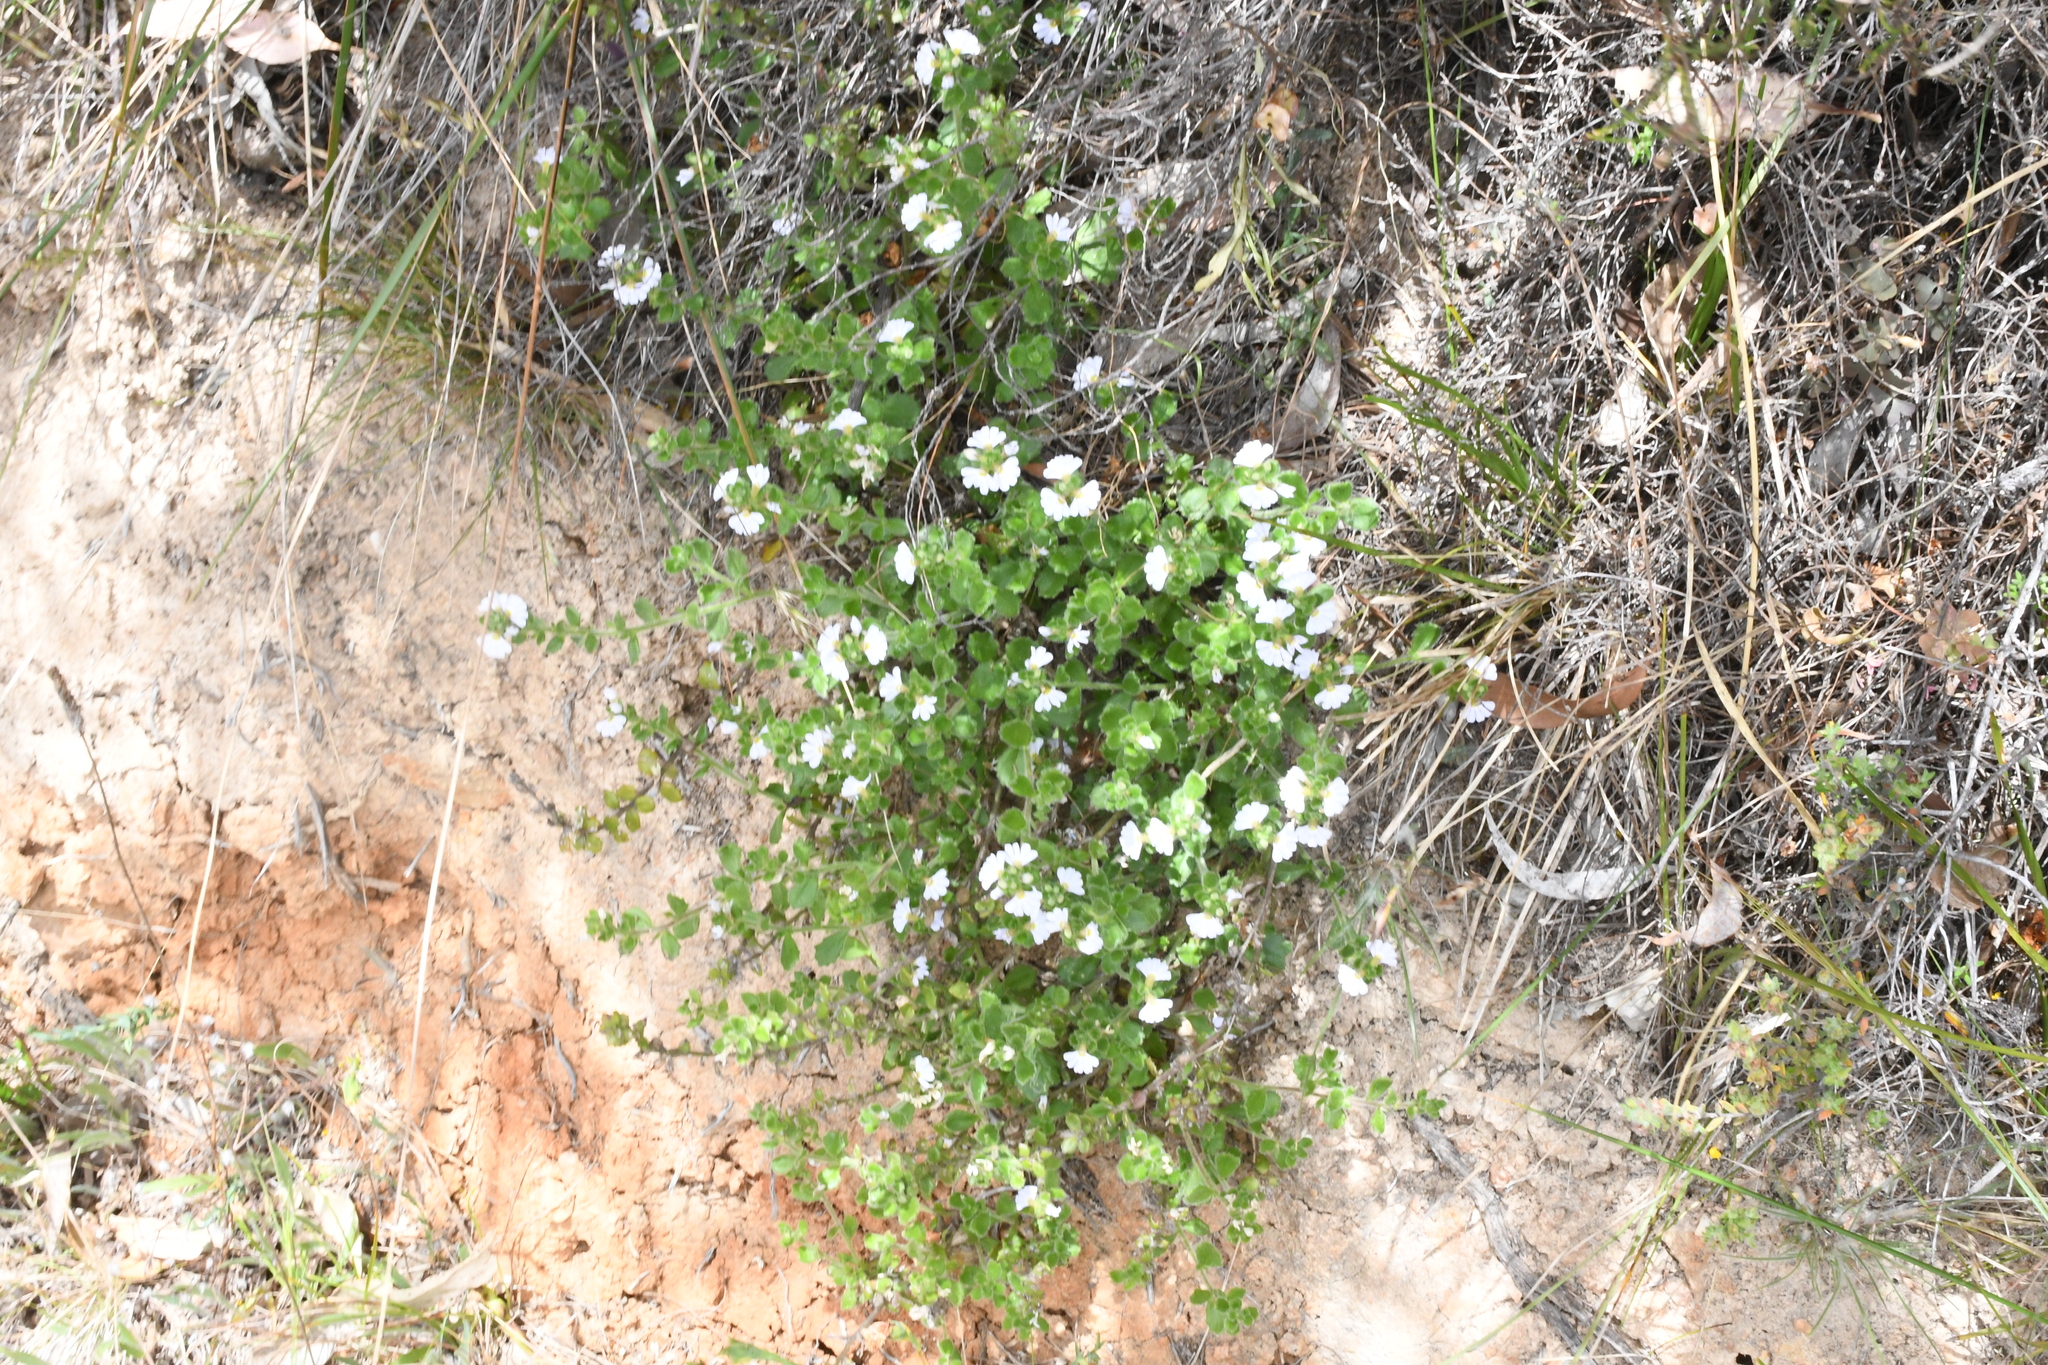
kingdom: Plantae
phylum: Tracheophyta
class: Magnoliopsida
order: Asterales
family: Goodeniaceae
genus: Scaevola
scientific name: Scaevola albida
